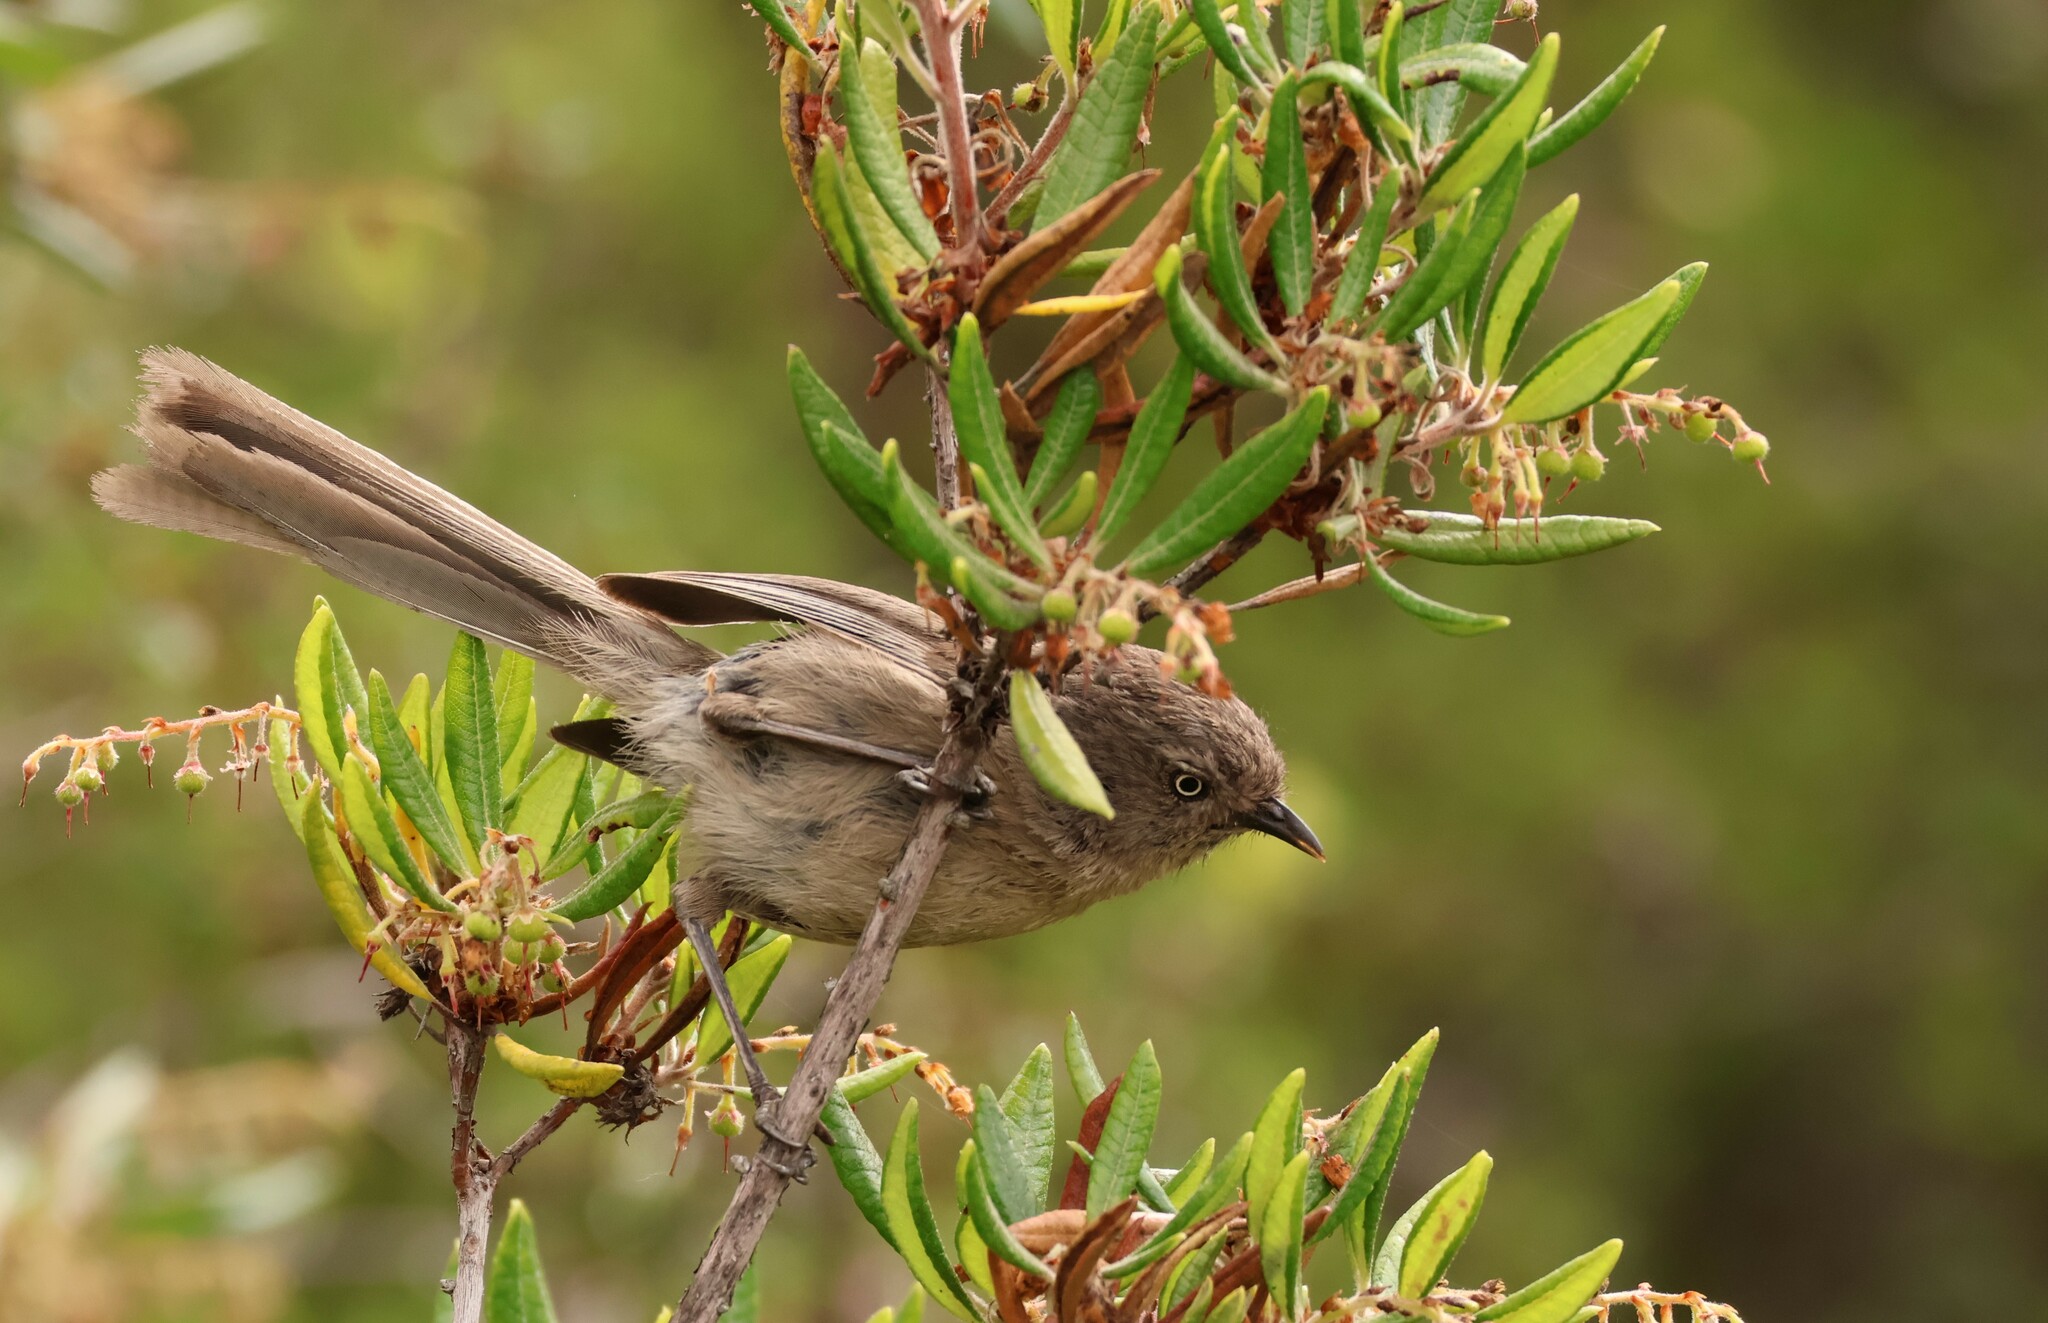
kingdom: Animalia
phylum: Chordata
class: Aves
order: Passeriformes
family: Sylviidae
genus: Chamaea
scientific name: Chamaea fasciata
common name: Wrentit
